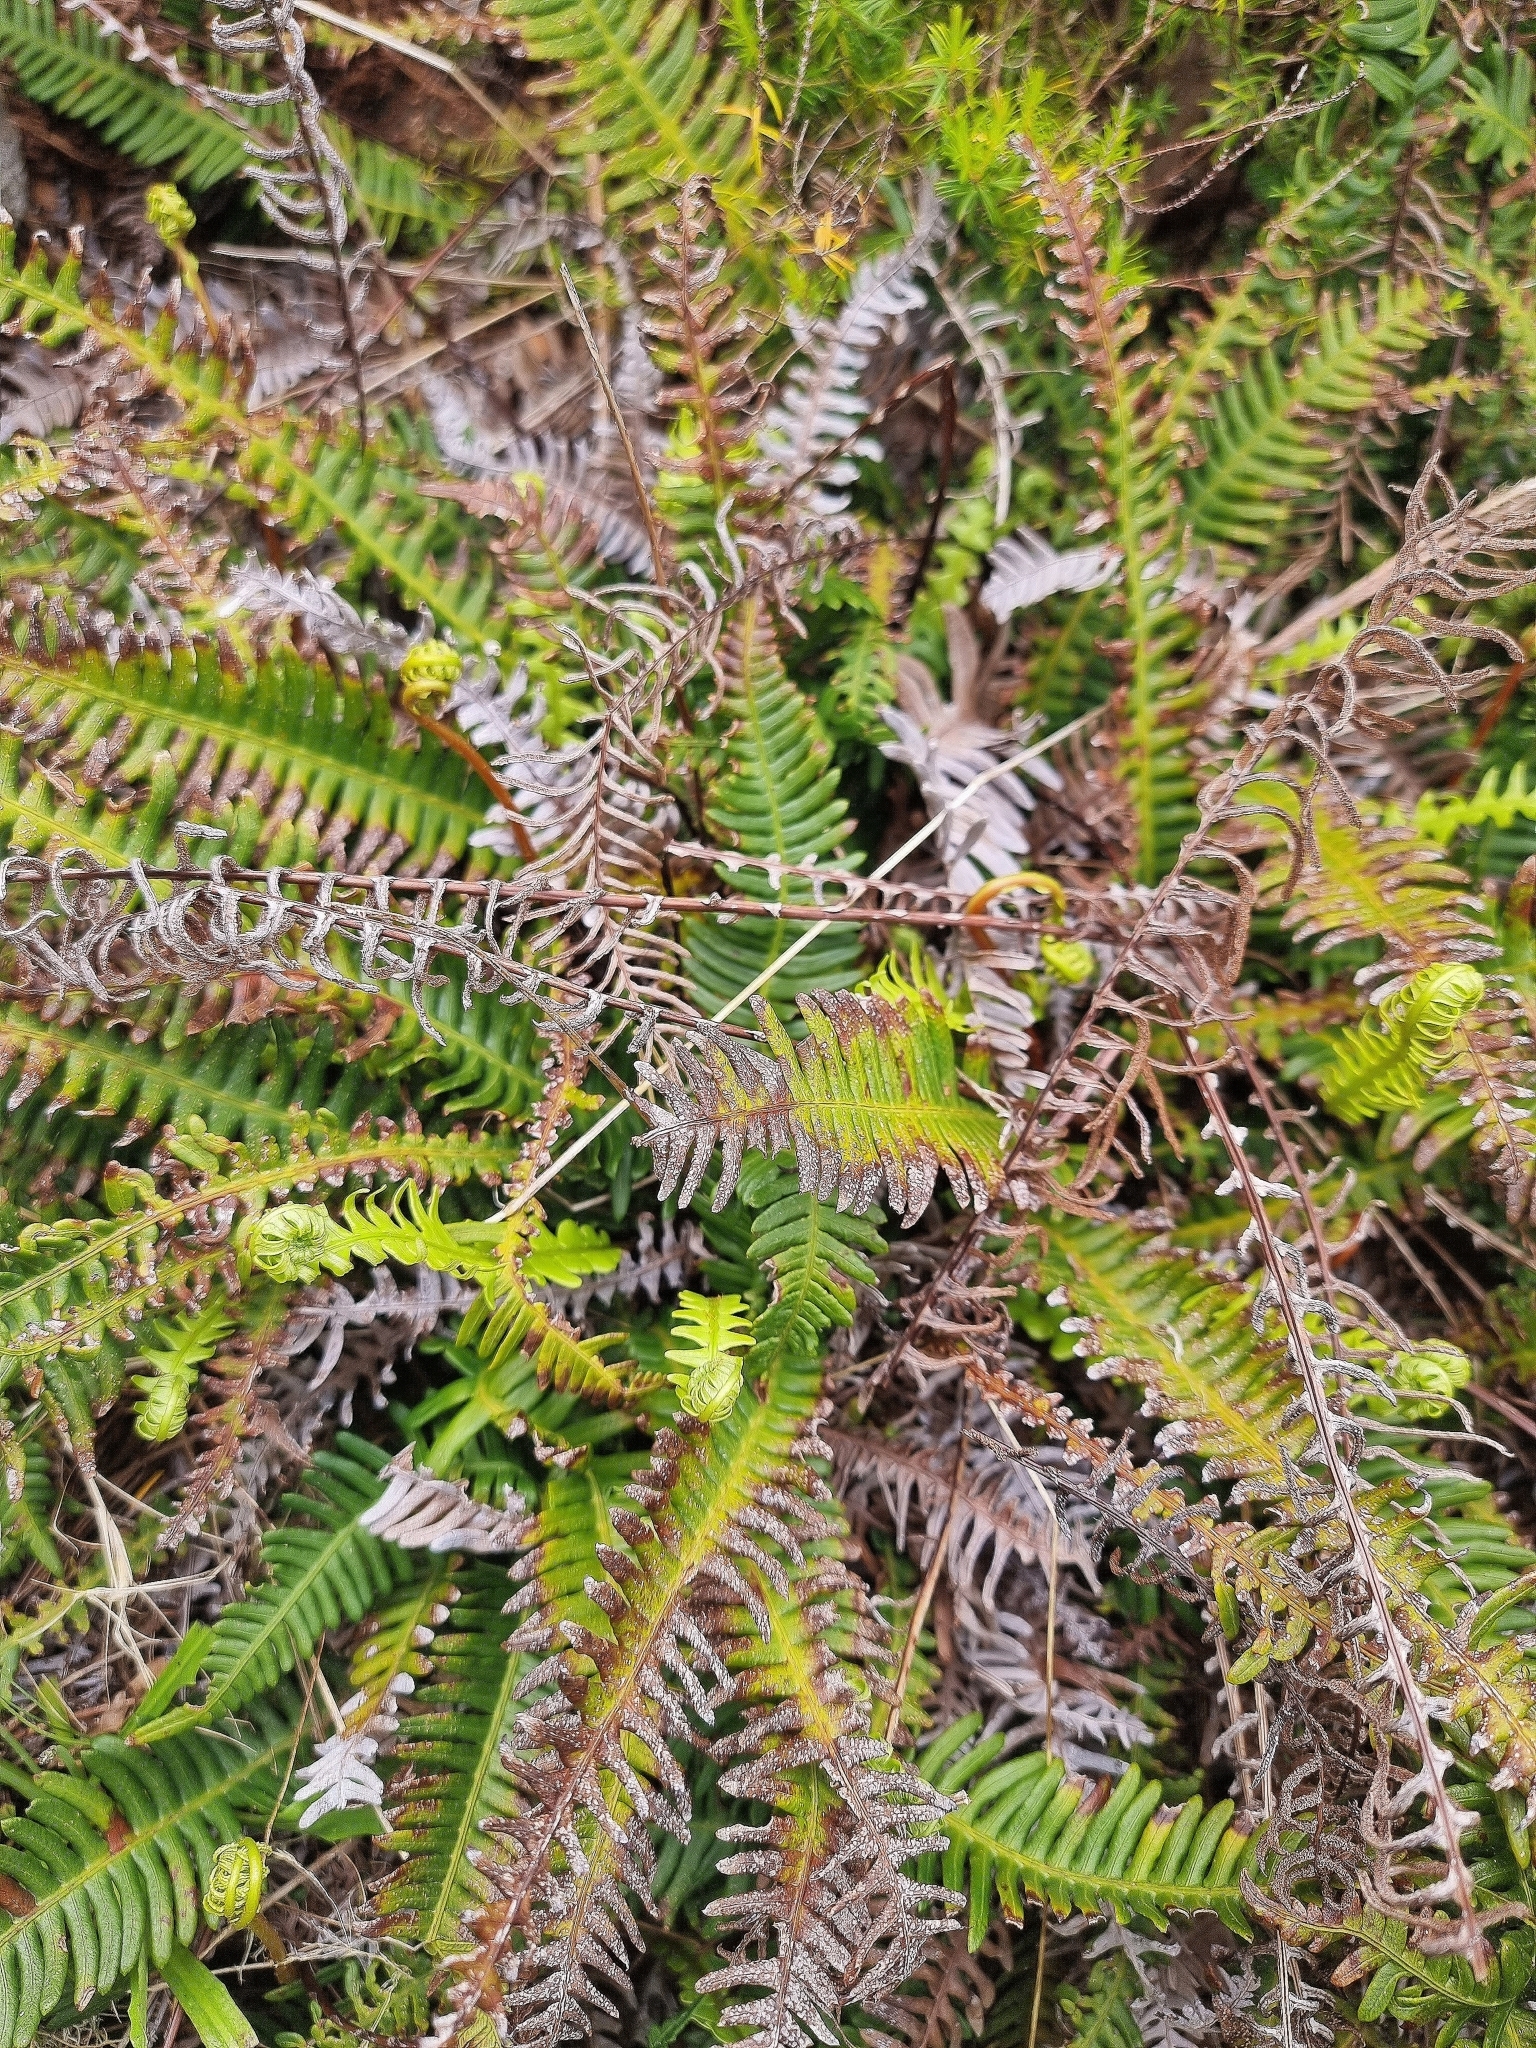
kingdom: Plantae
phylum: Tracheophyta
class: Polypodiopsida
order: Polypodiales
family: Blechnaceae
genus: Struthiopteris
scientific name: Struthiopteris spicant
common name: Deer fern
